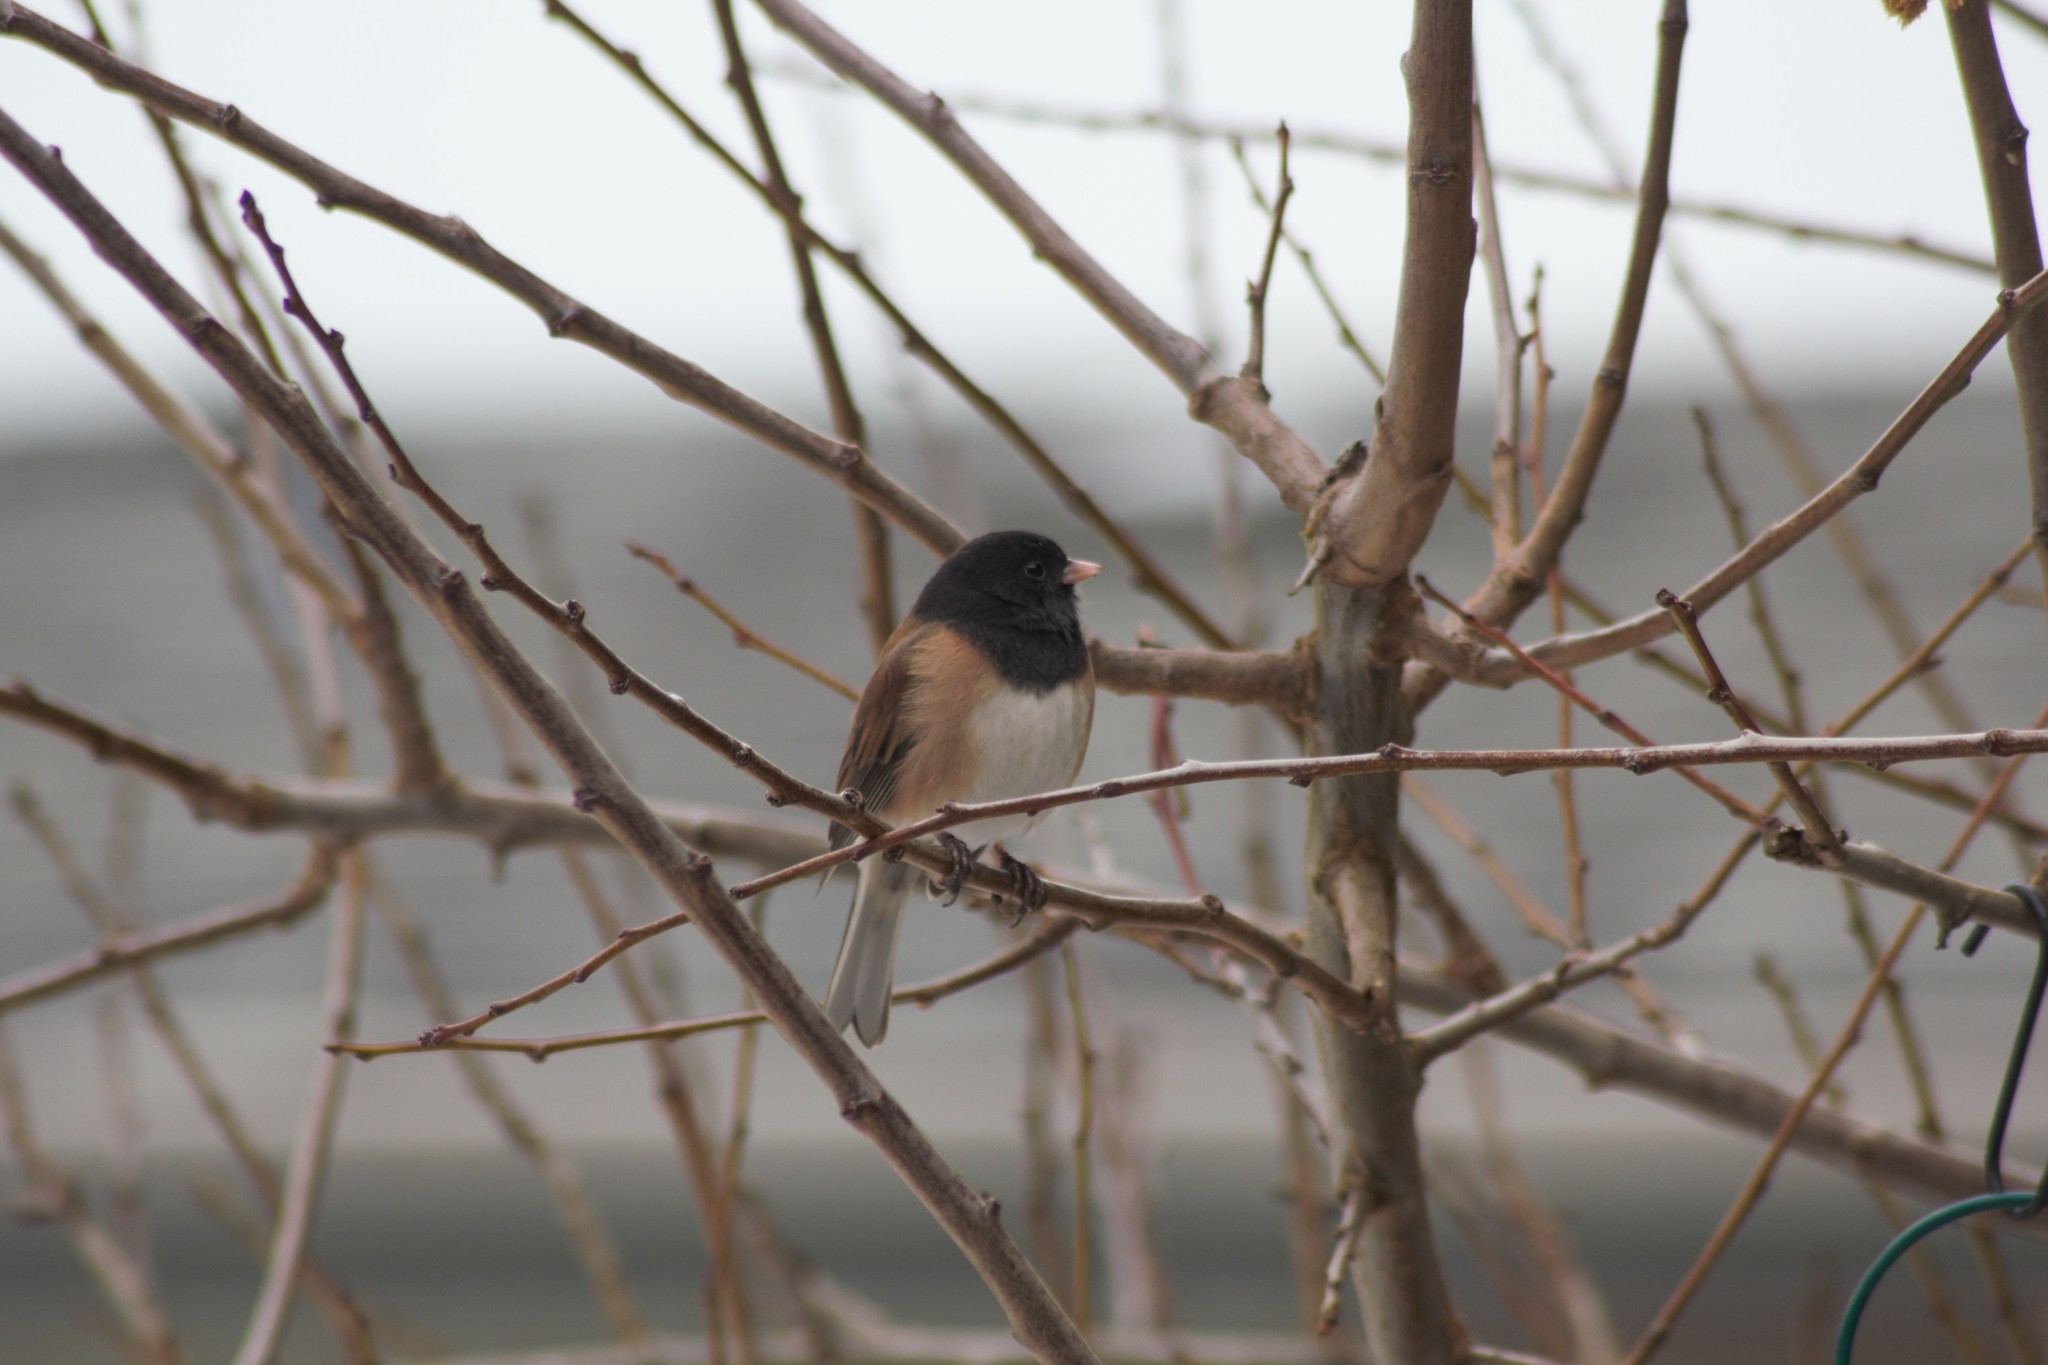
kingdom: Animalia
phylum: Chordata
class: Aves
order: Passeriformes
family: Passerellidae
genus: Junco
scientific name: Junco hyemalis
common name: Dark-eyed junco
